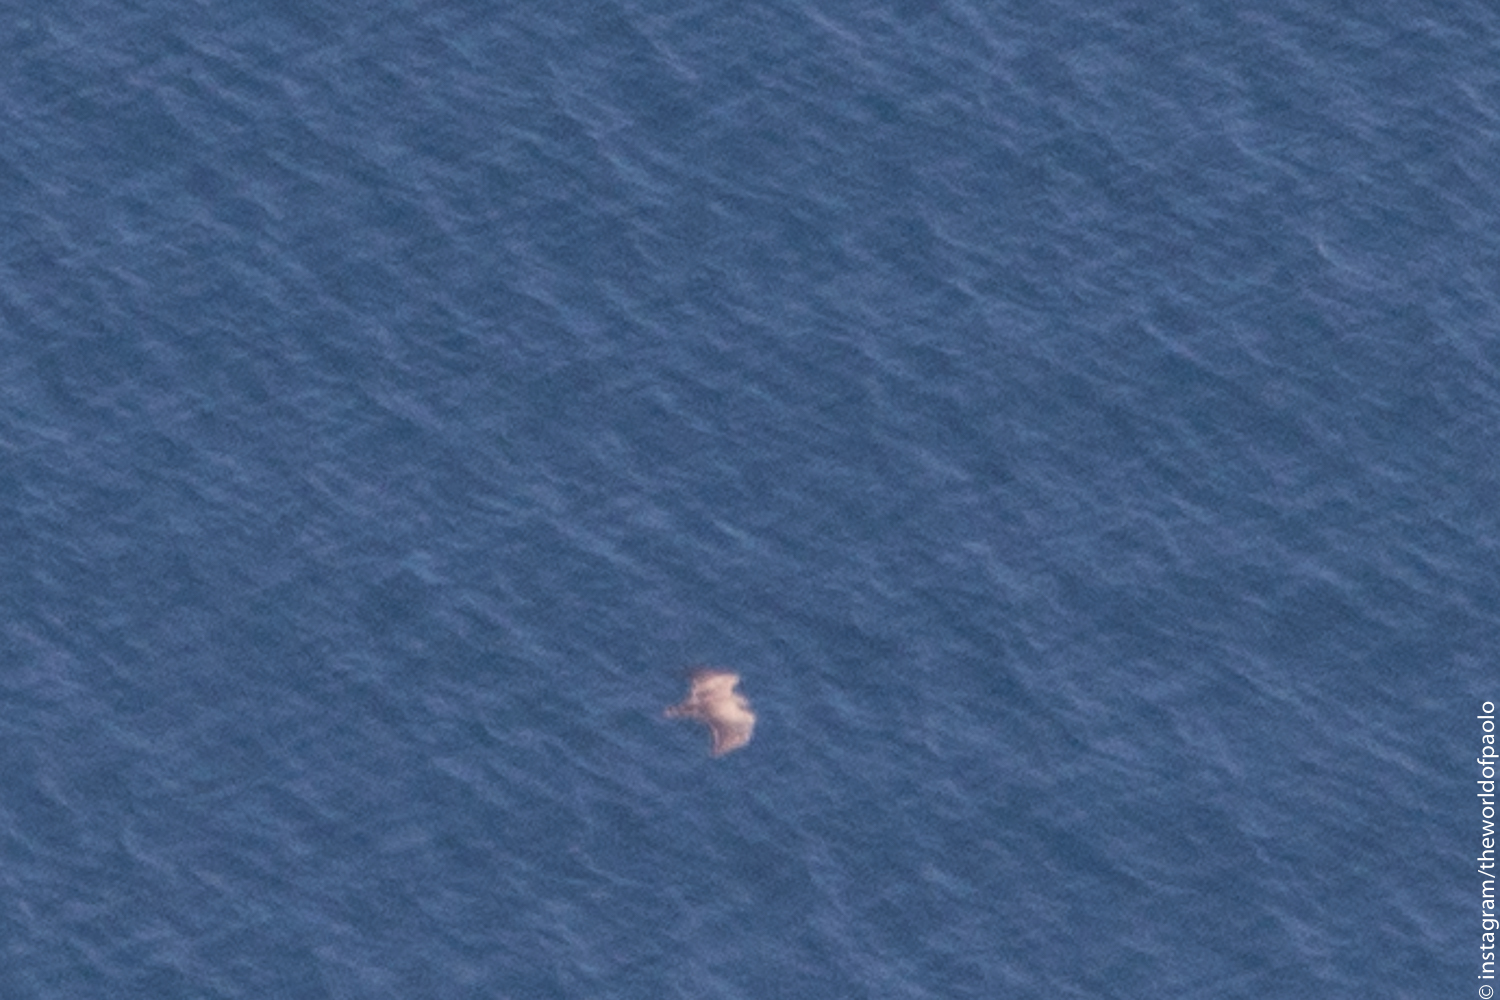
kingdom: Animalia
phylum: Chordata
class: Aves
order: Accipitriformes
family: Accipitridae
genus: Circaetus
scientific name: Circaetus gallicus
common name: Short-toed snake eagle
